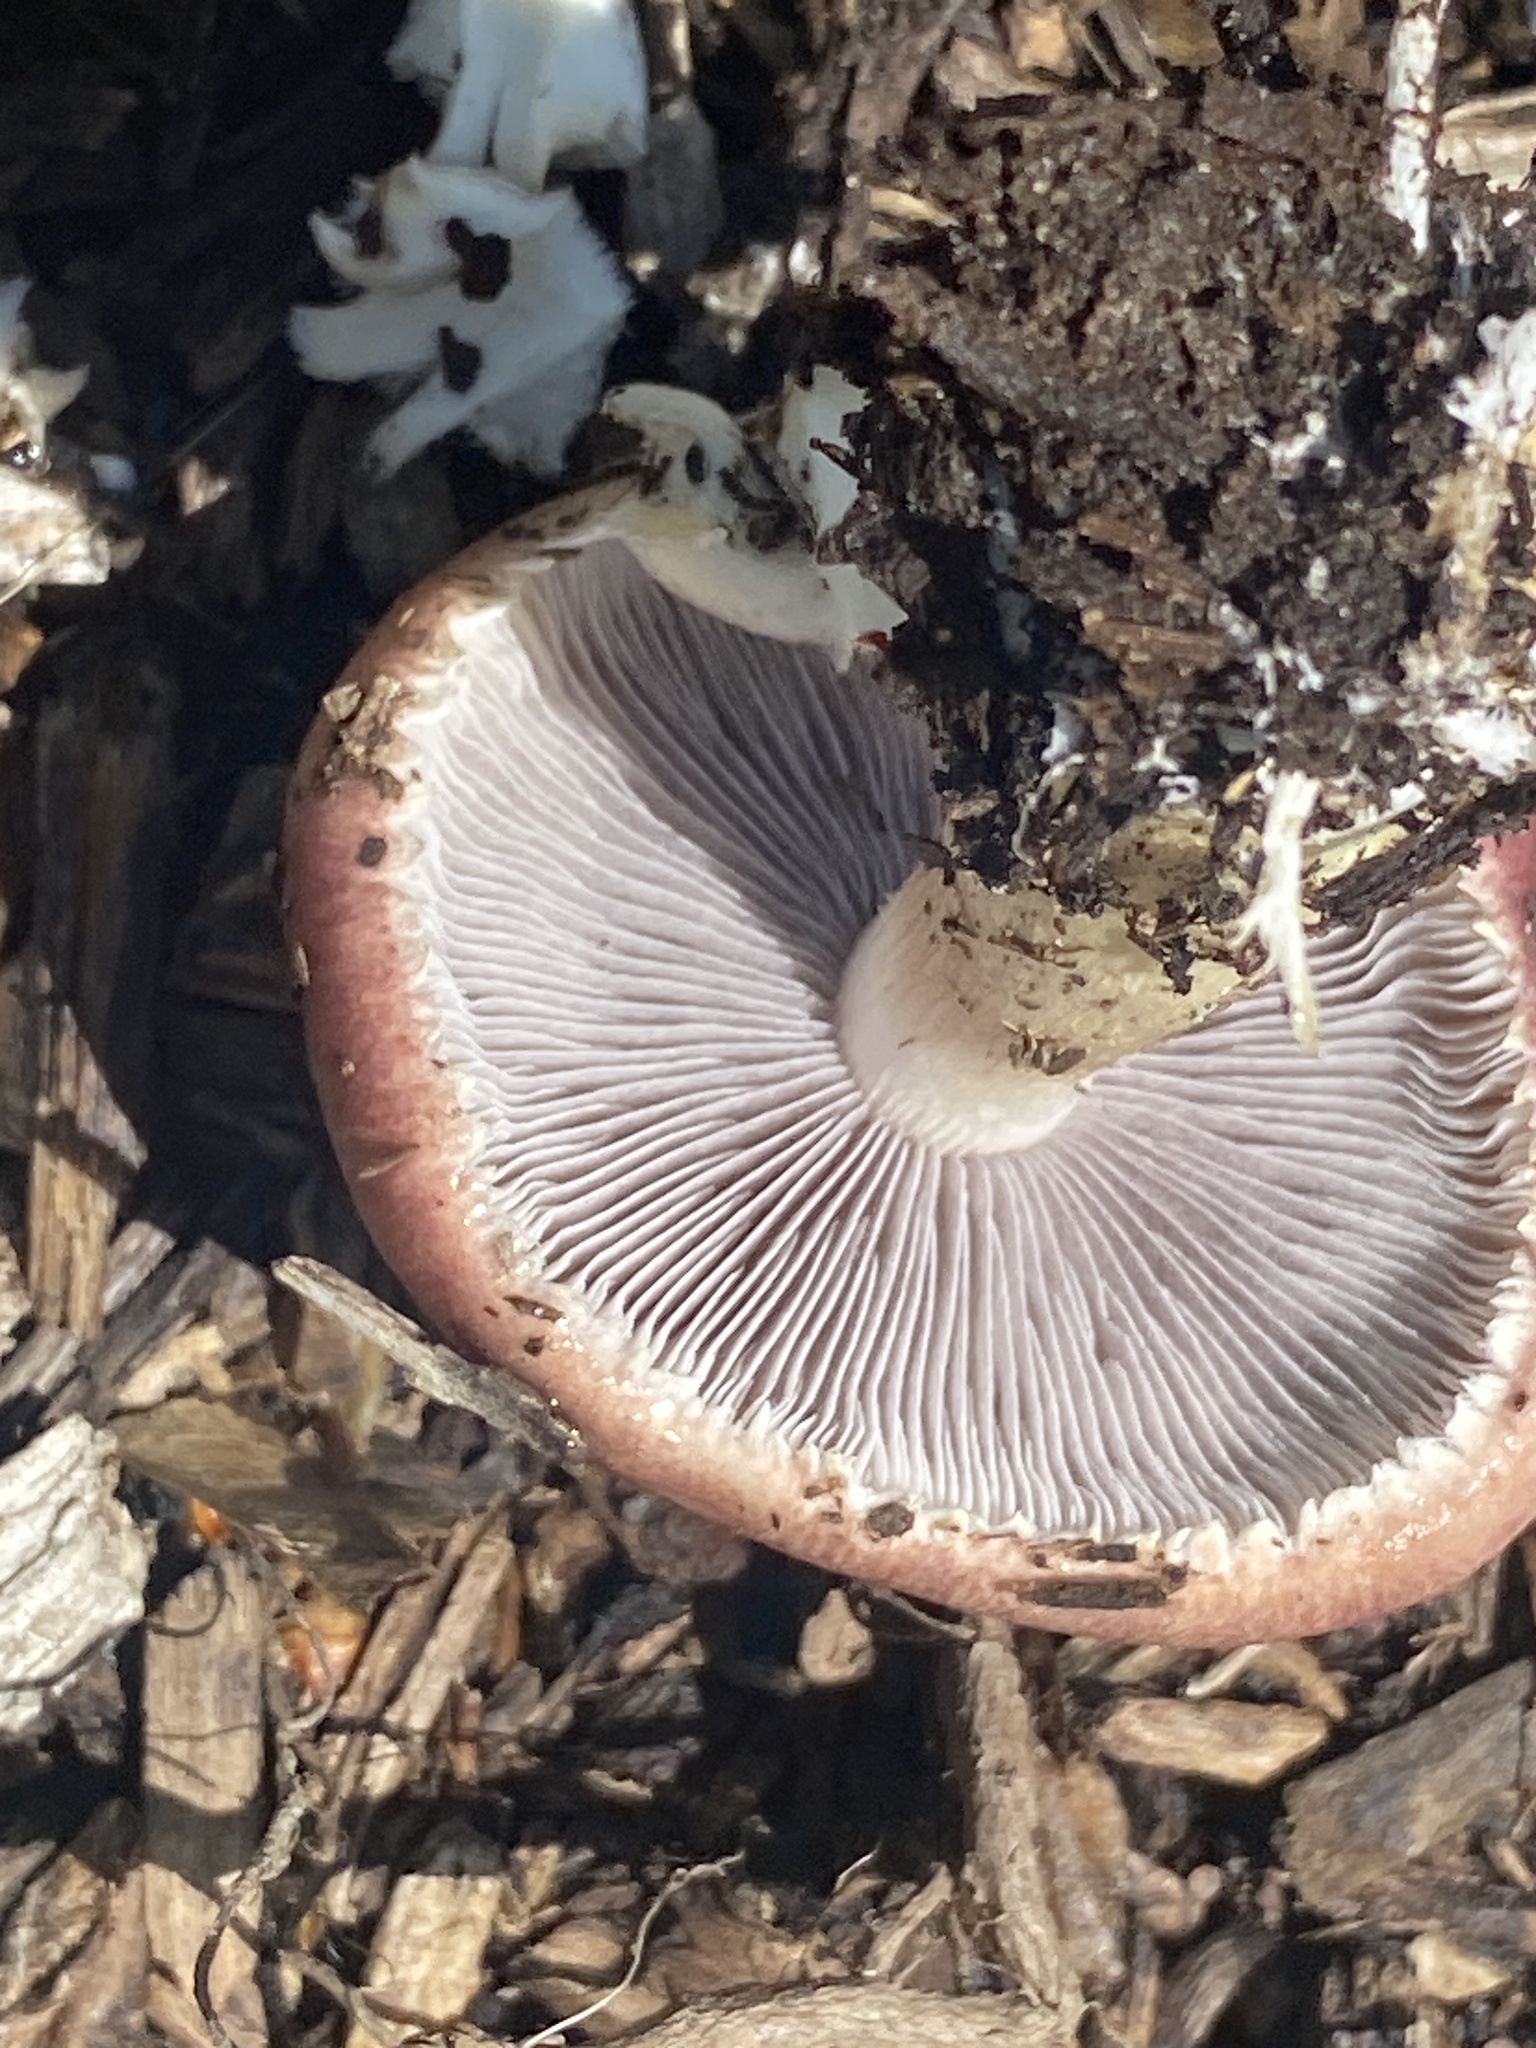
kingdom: Fungi
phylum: Basidiomycota
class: Agaricomycetes
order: Agaricales
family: Strophariaceae
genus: Stropharia
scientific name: Stropharia rugosoannulata
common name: Wine roundhead
